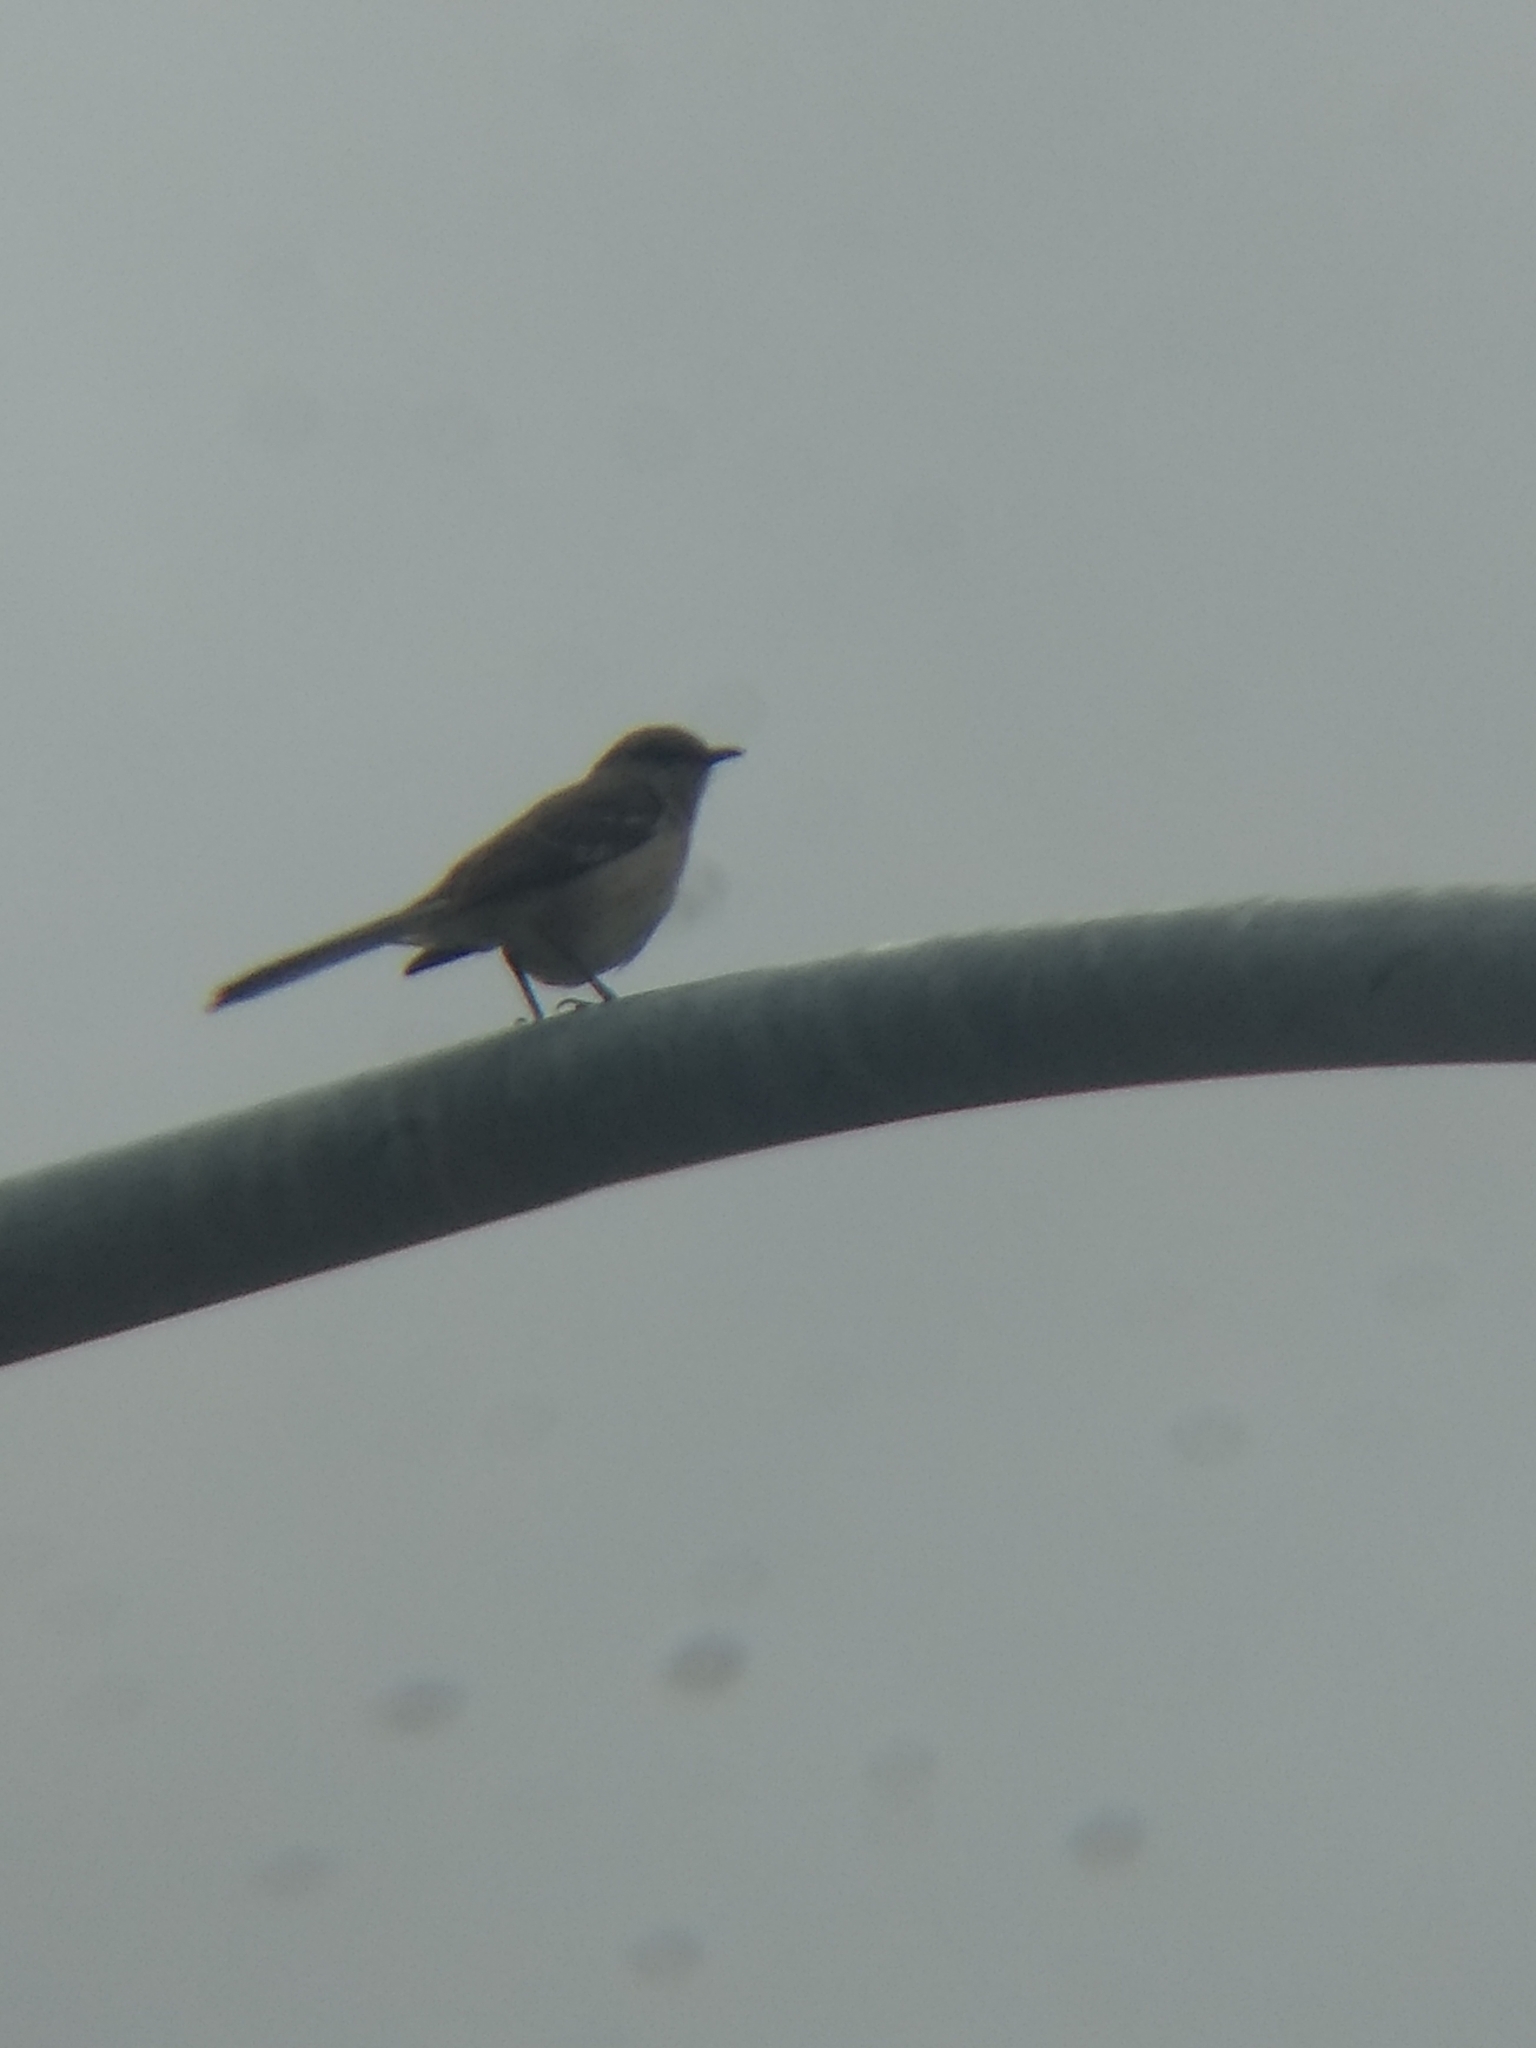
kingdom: Animalia
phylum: Chordata
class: Aves
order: Passeriformes
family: Mimidae
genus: Mimus
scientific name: Mimus polyglottos
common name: Northern mockingbird
